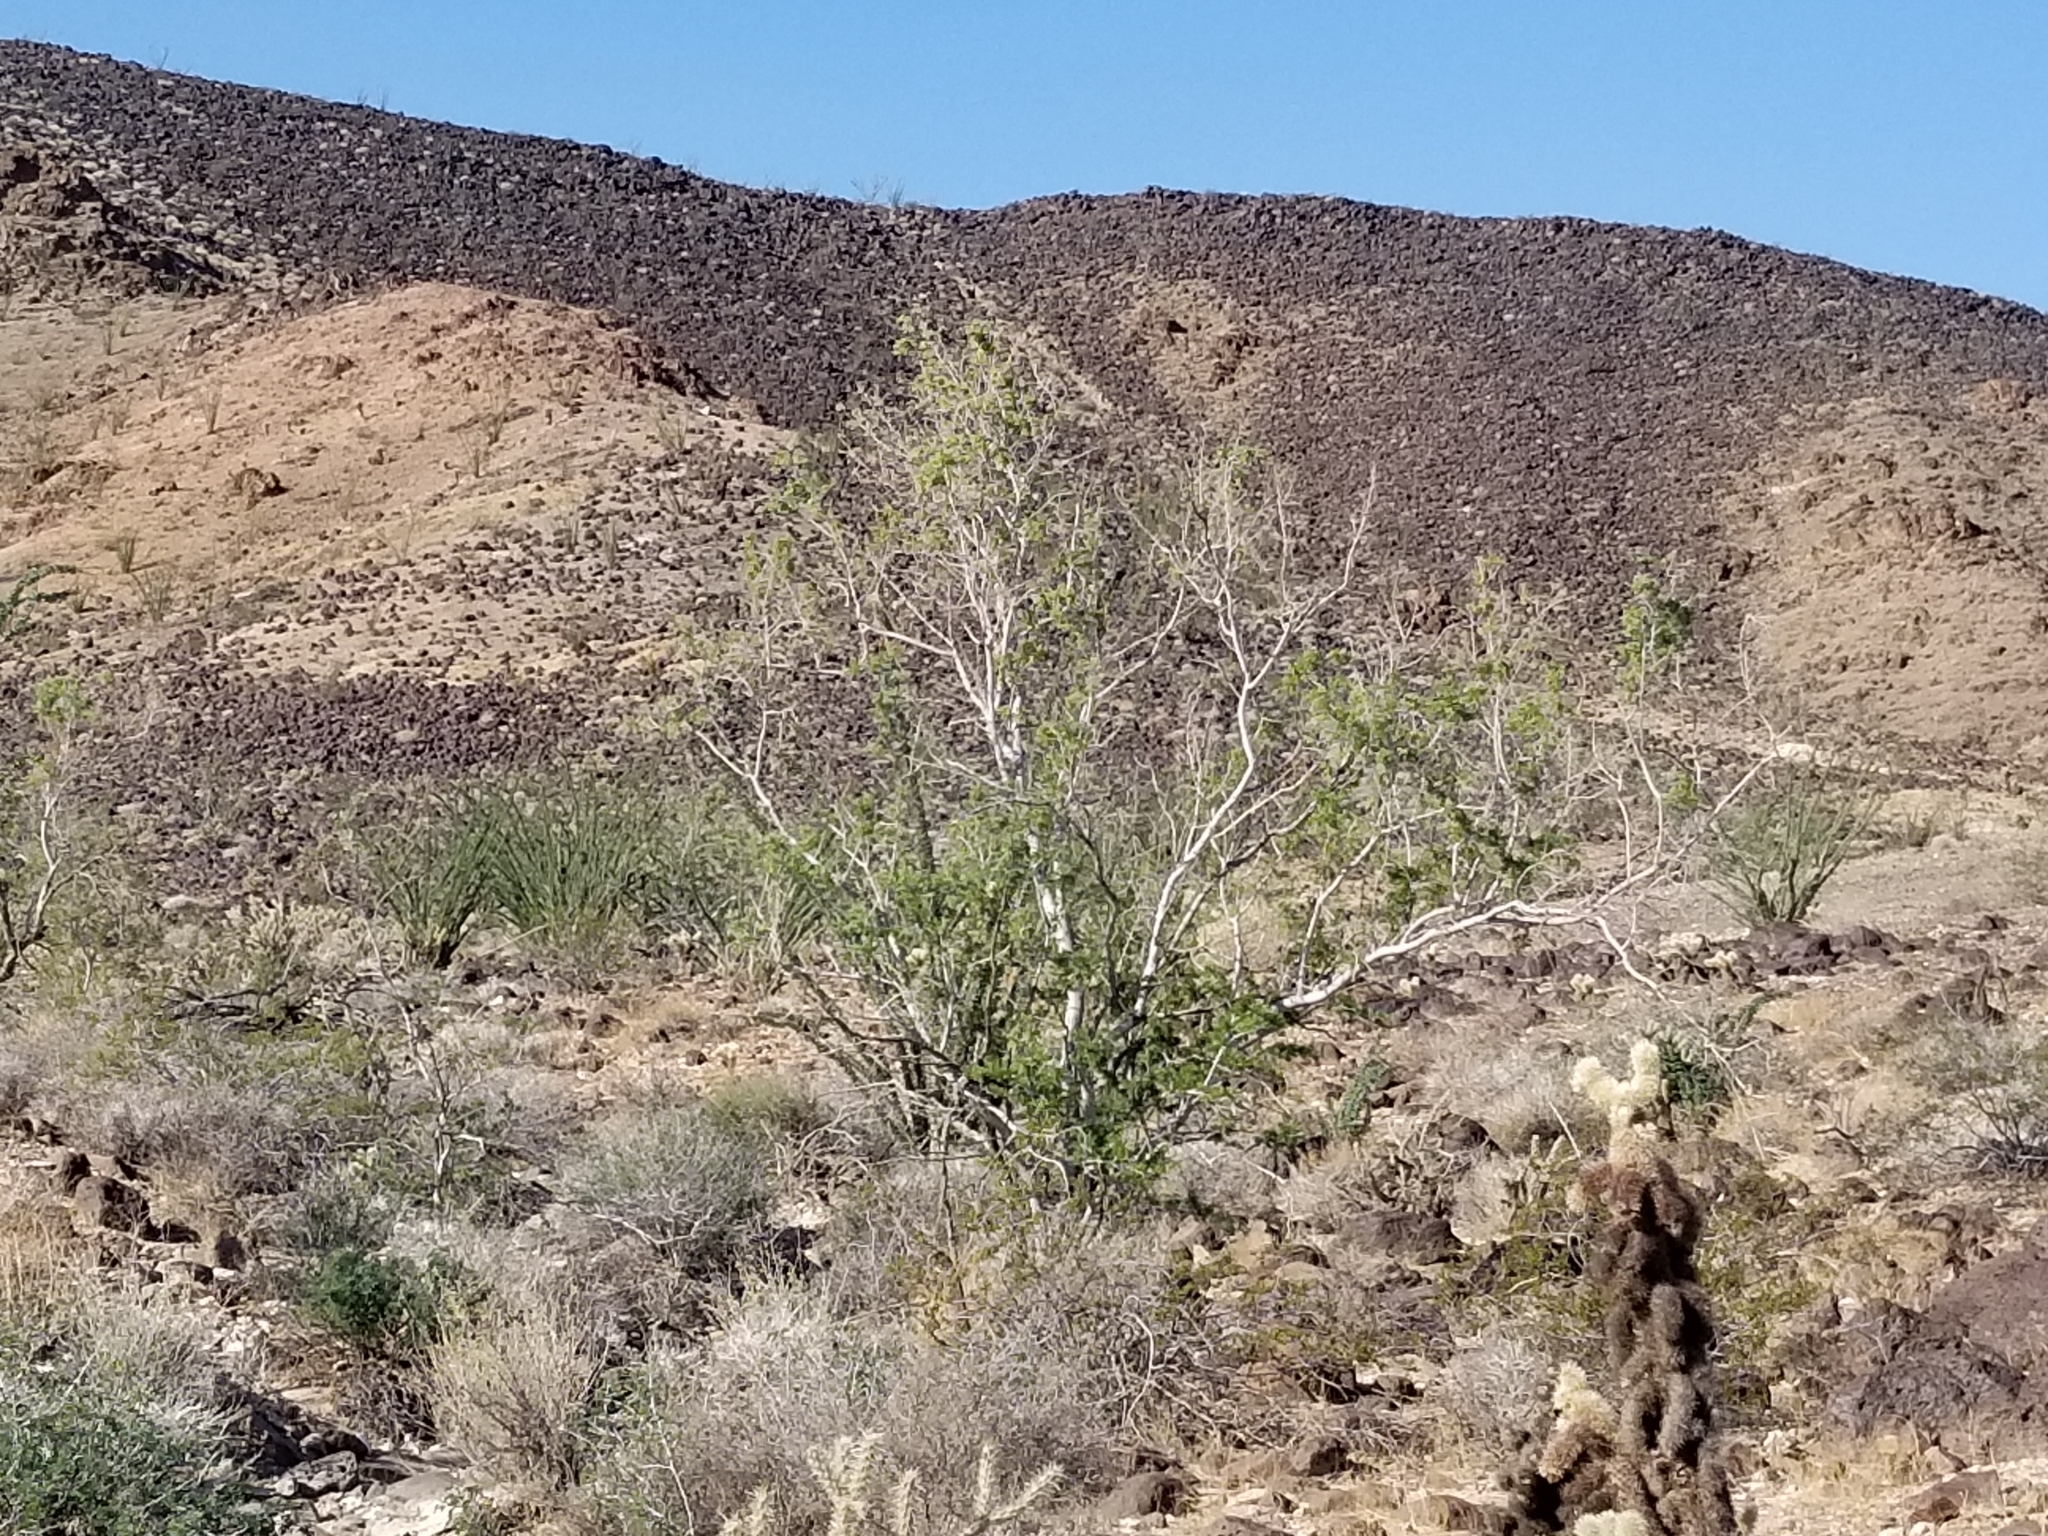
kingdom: Plantae
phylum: Tracheophyta
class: Magnoliopsida
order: Fabales
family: Fabaceae
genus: Olneya
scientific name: Olneya tesota
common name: Desert ironwood
